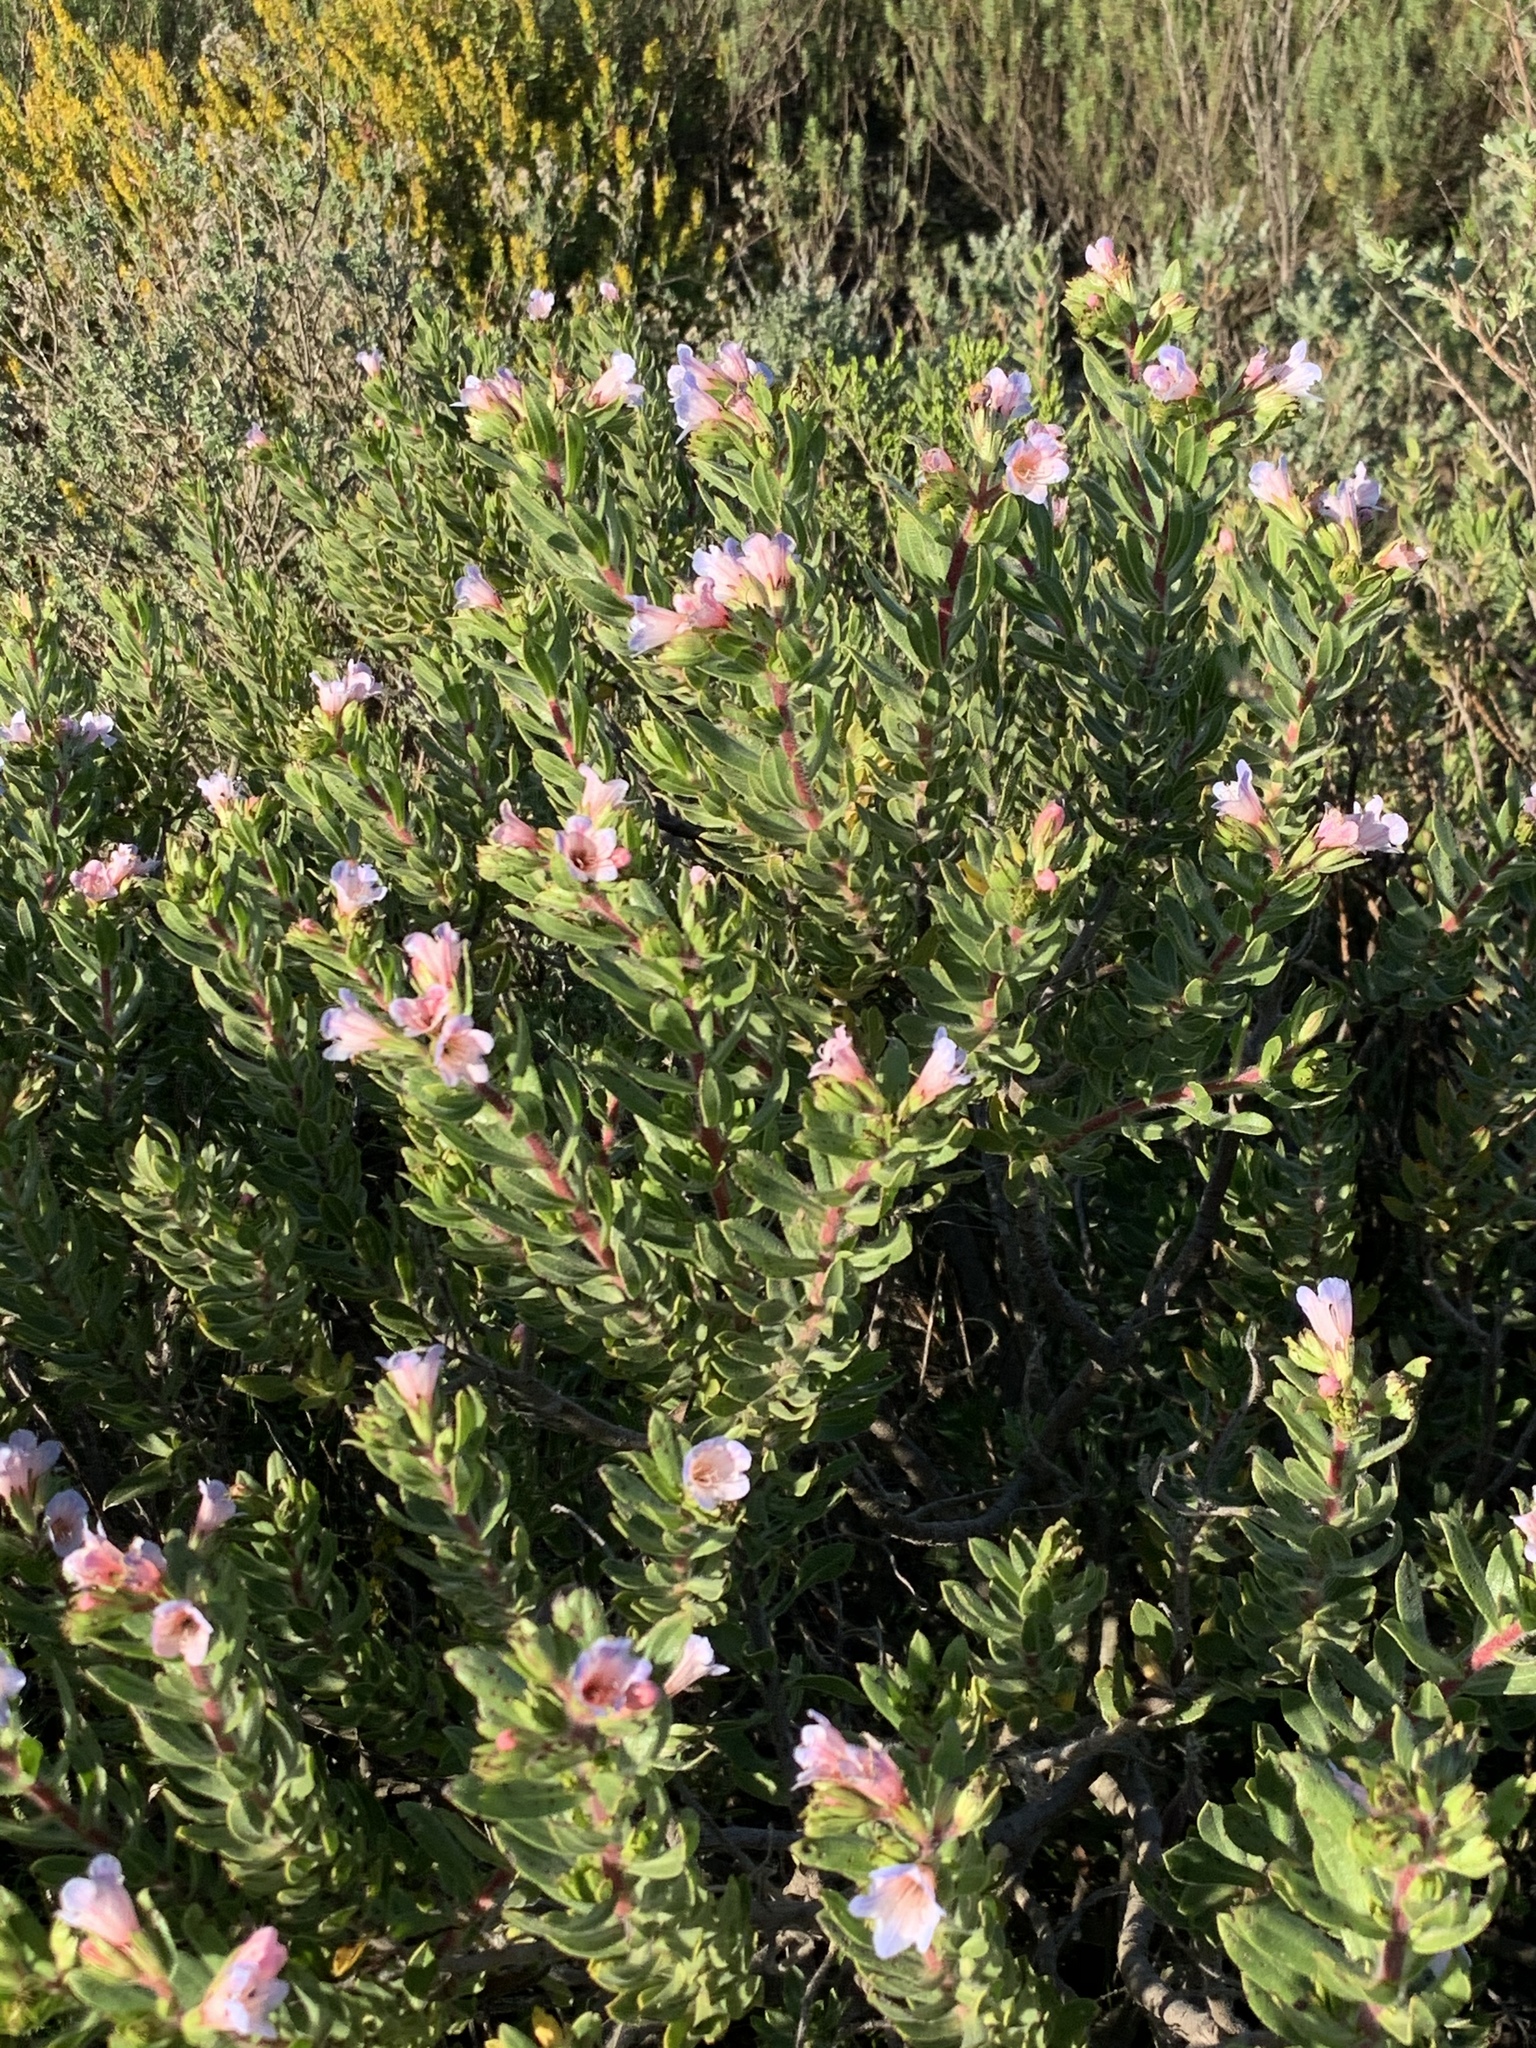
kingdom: Plantae
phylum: Tracheophyta
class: Magnoliopsida
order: Boraginales
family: Boraginaceae
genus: Lobostemon
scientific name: Lobostemon fruticosus
